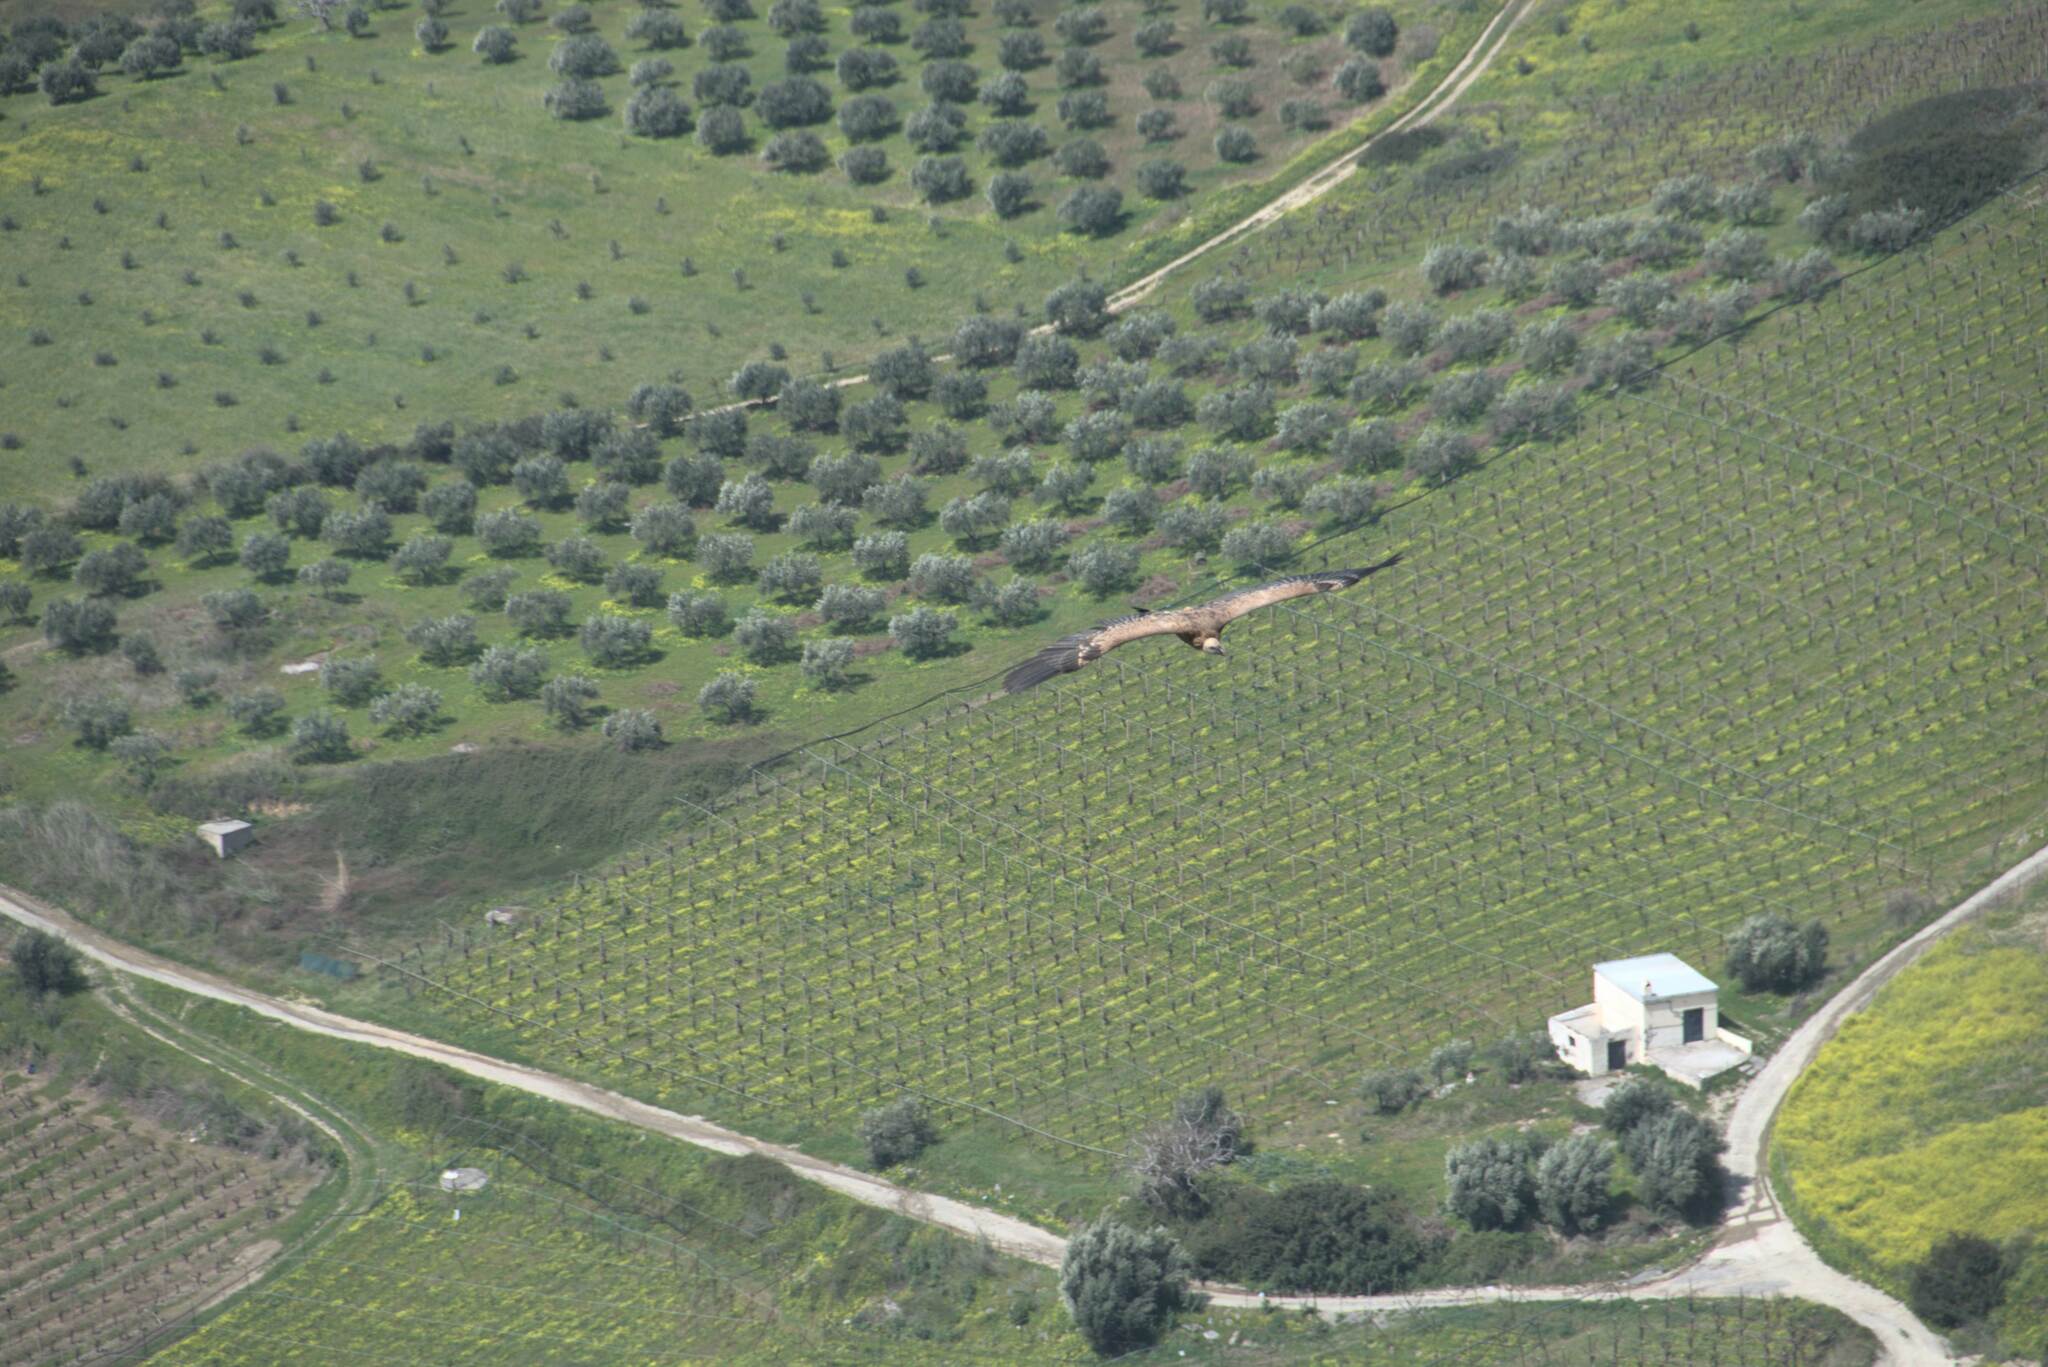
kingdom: Animalia
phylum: Chordata
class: Aves
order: Accipitriformes
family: Accipitridae
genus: Gyps
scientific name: Gyps fulvus
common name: Griffon vulture
